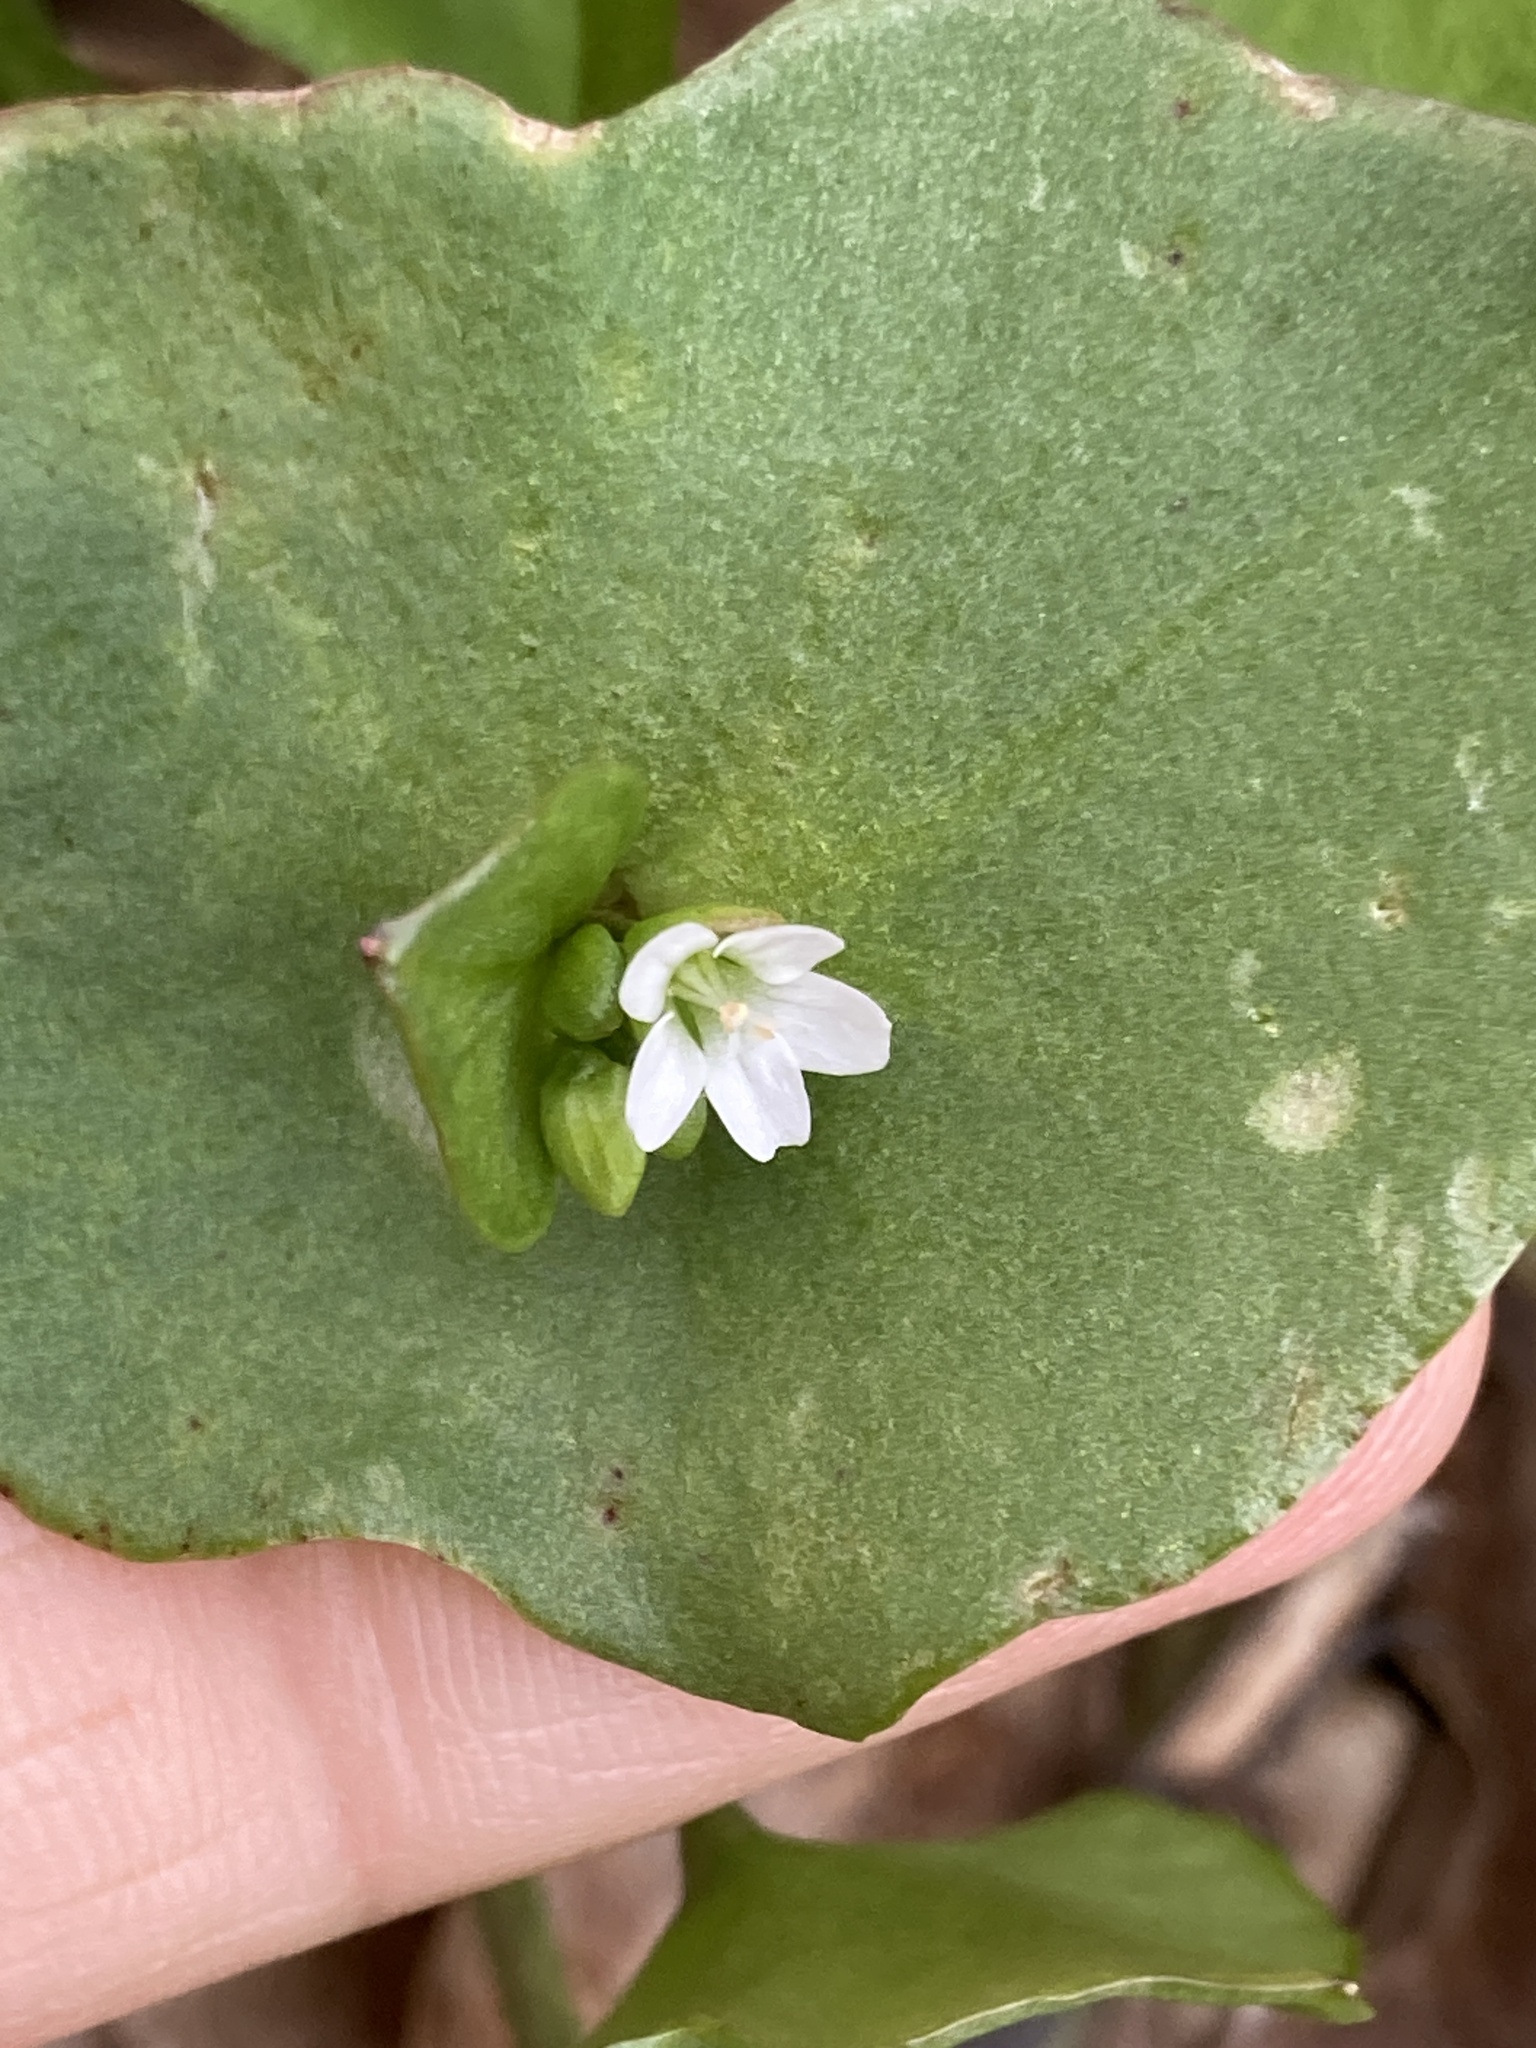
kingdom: Plantae
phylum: Tracheophyta
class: Magnoliopsida
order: Caryophyllales
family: Montiaceae
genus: Claytonia
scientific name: Claytonia perfoliata
